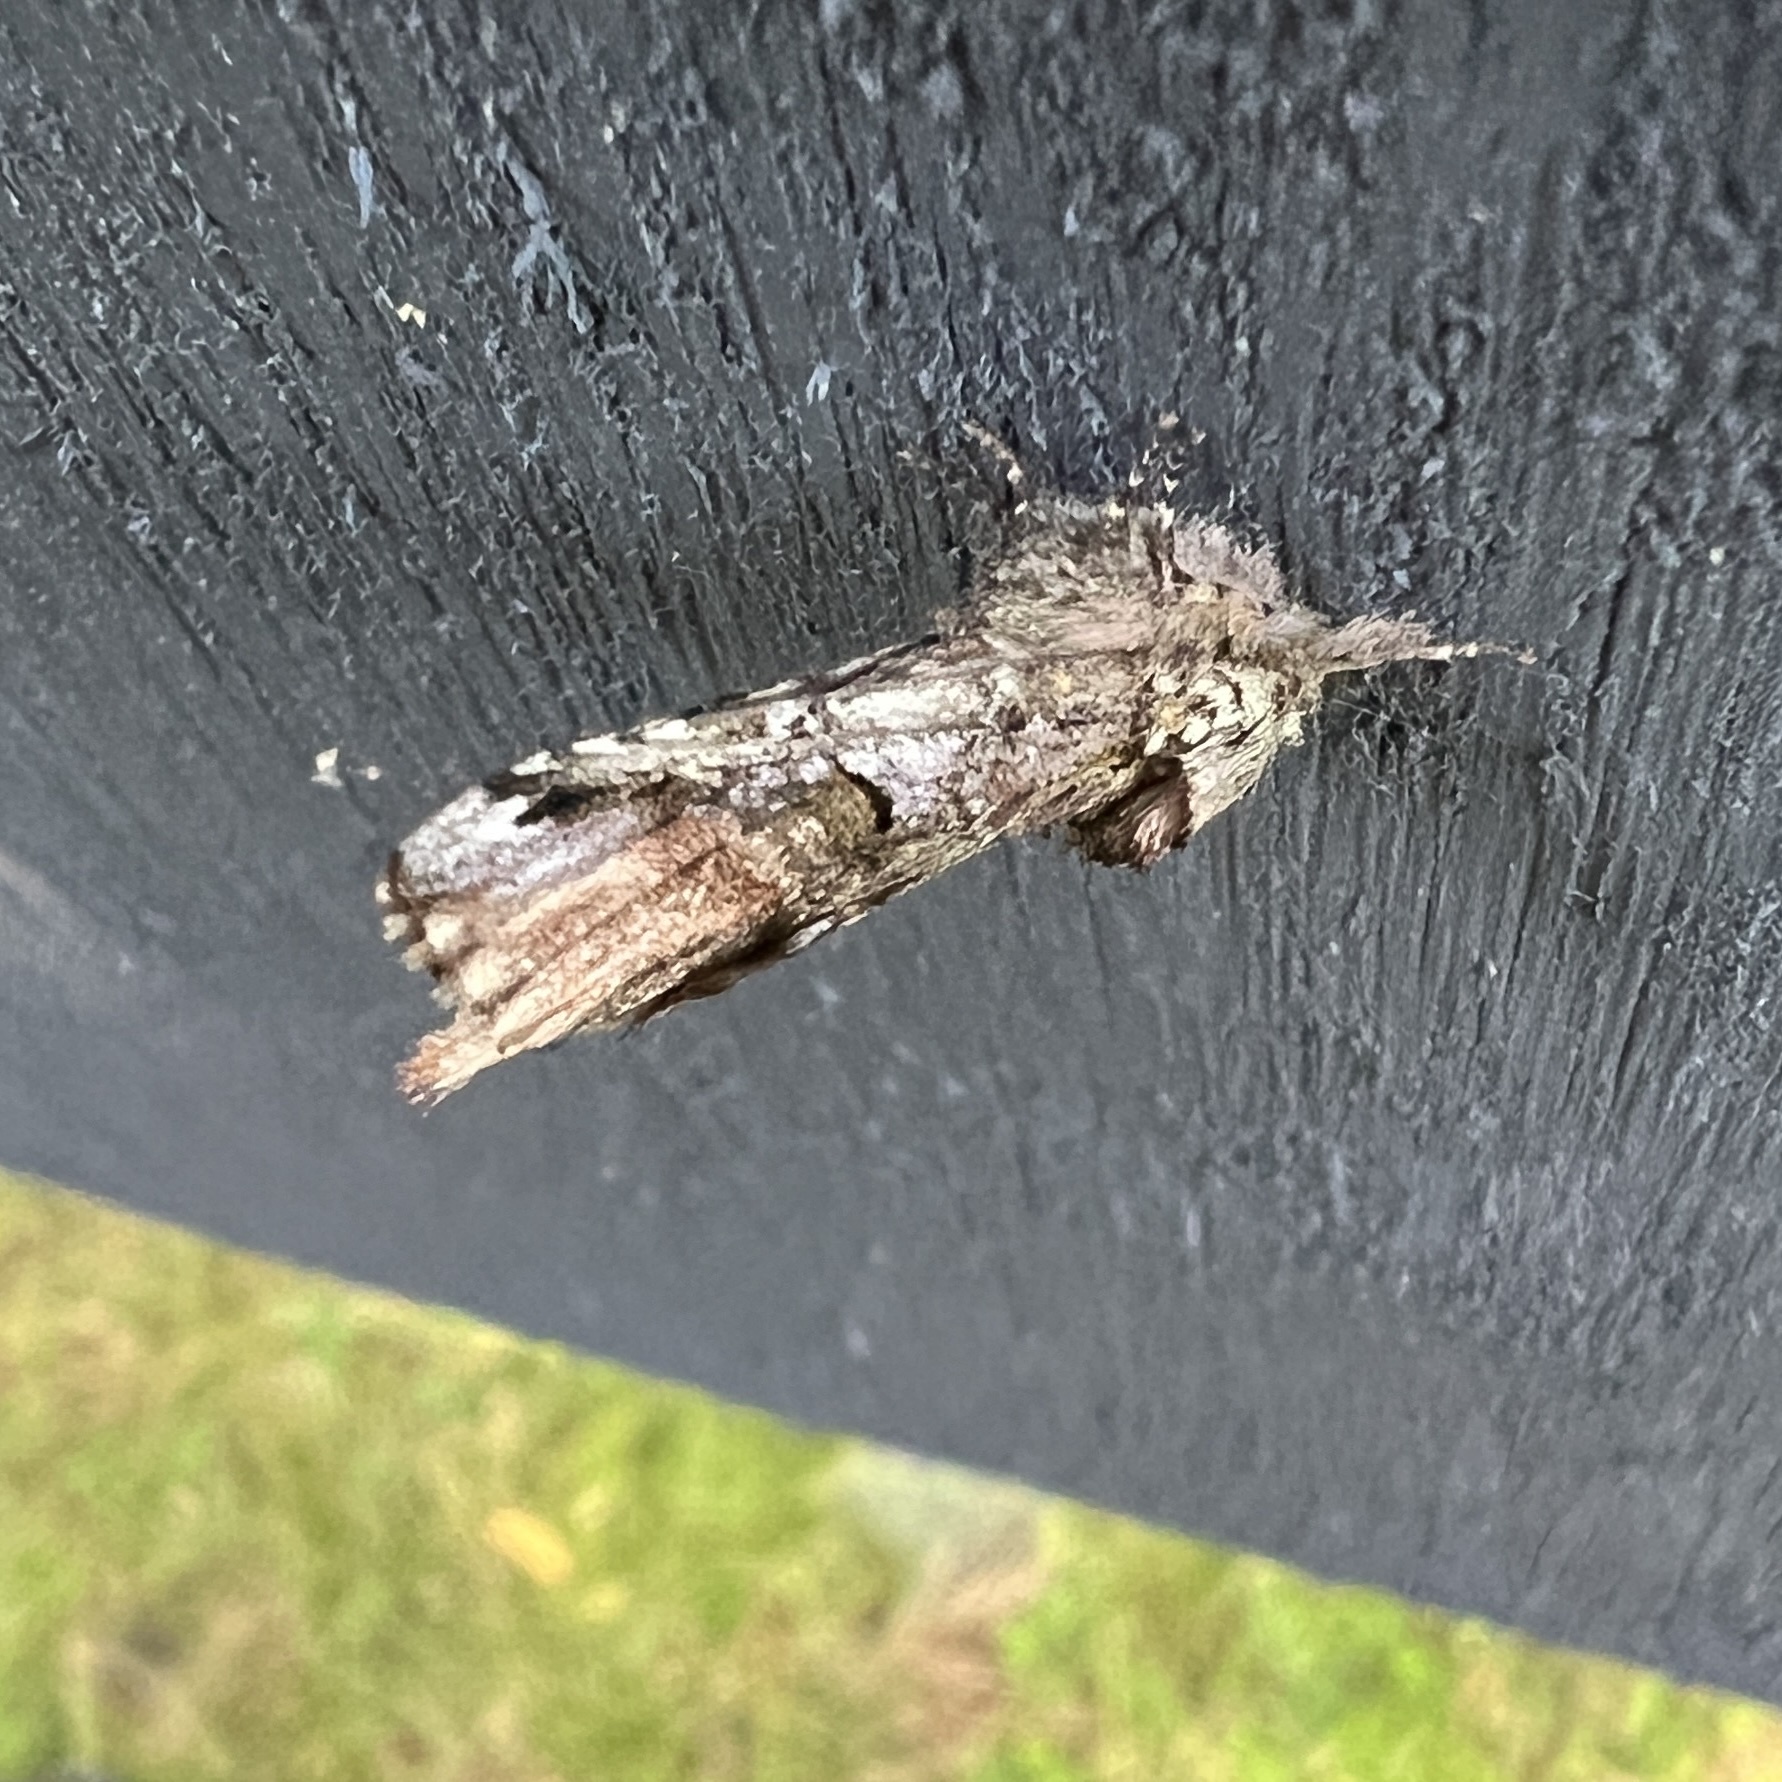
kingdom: Animalia
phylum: Arthropoda
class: Insecta
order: Lepidoptera
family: Notodontidae
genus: Schizura
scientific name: Schizura
